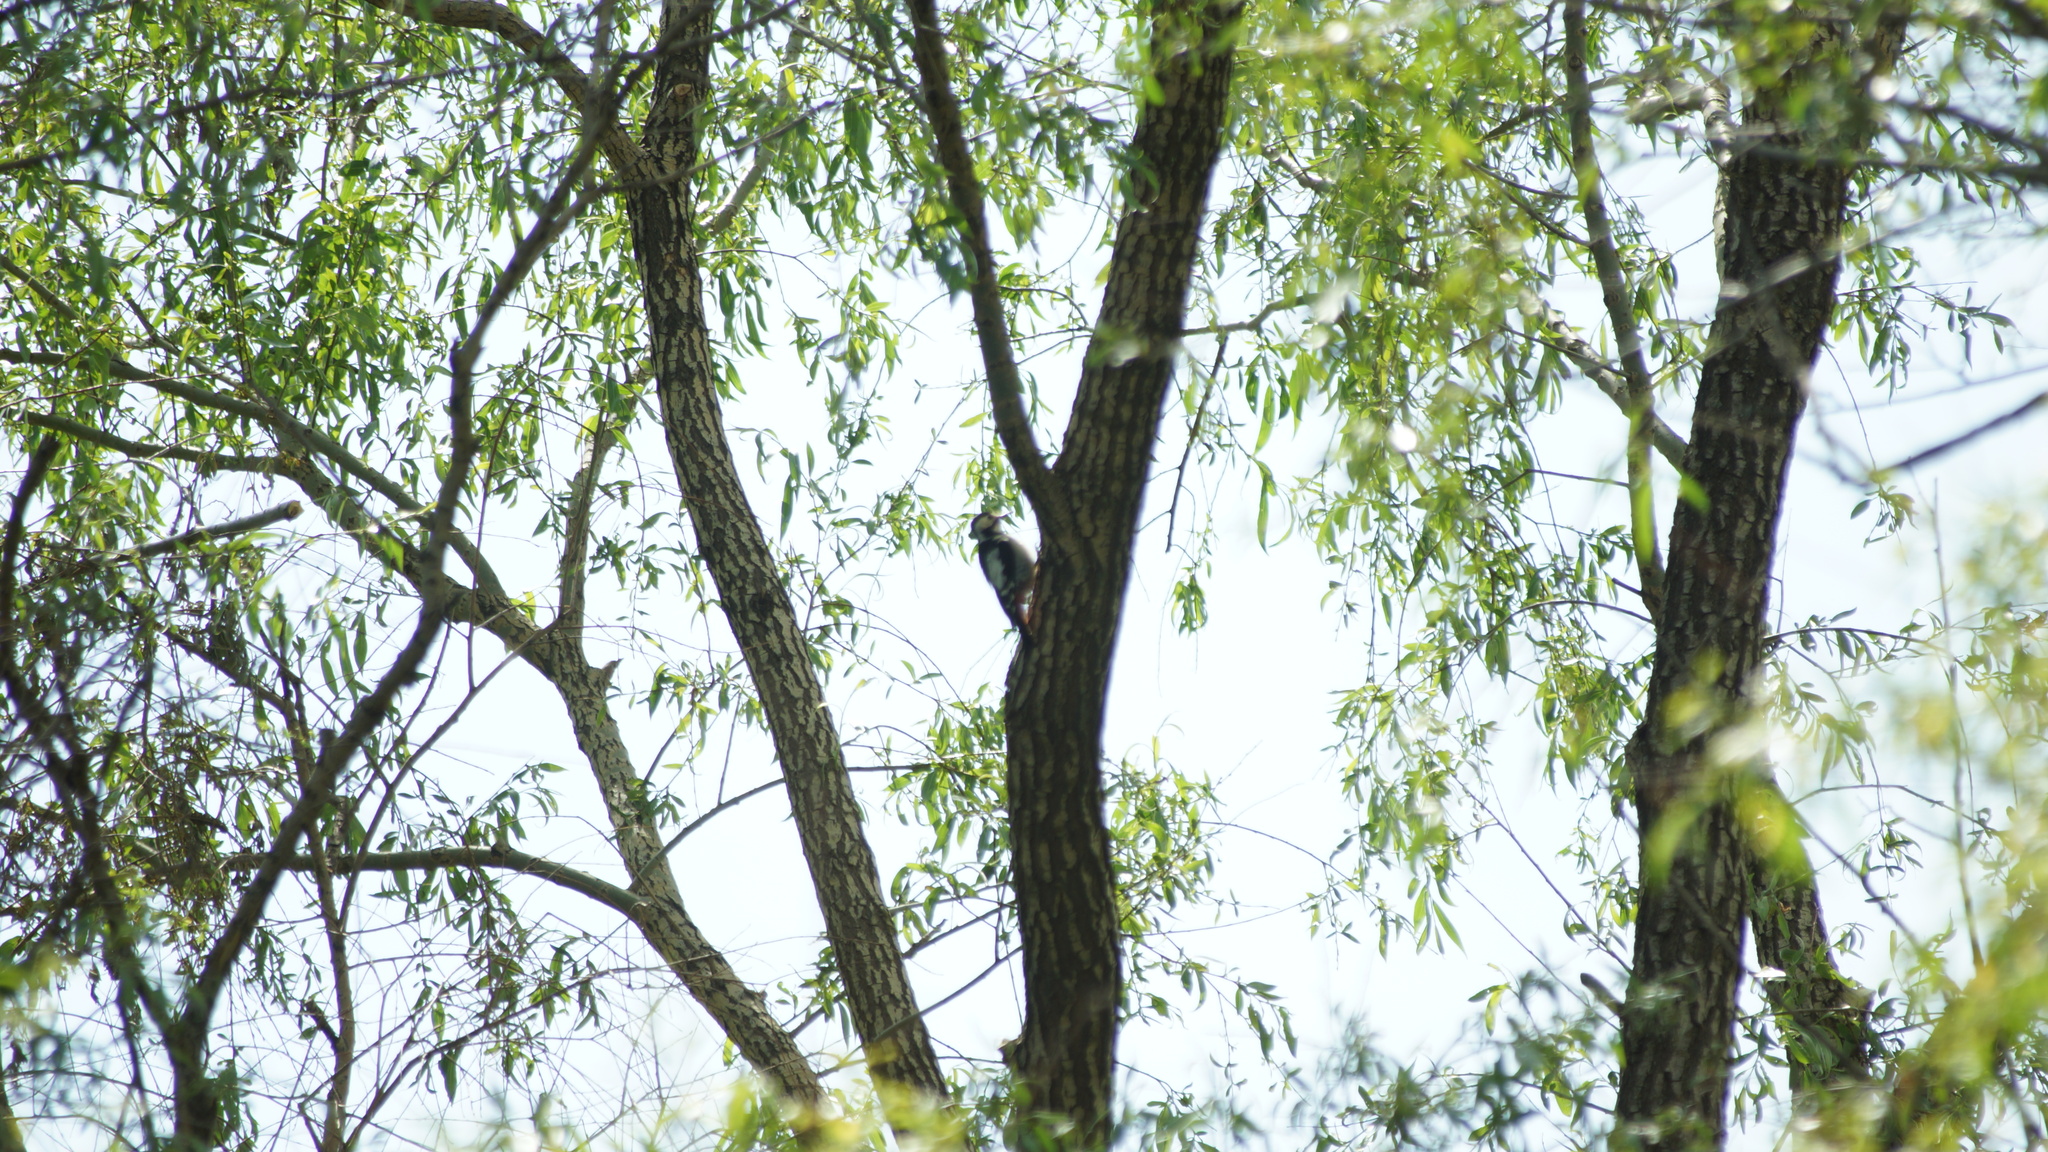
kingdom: Animalia
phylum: Chordata
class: Aves
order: Piciformes
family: Picidae
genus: Dendrocopos
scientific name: Dendrocopos syriacus
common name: Syrian woodpecker
